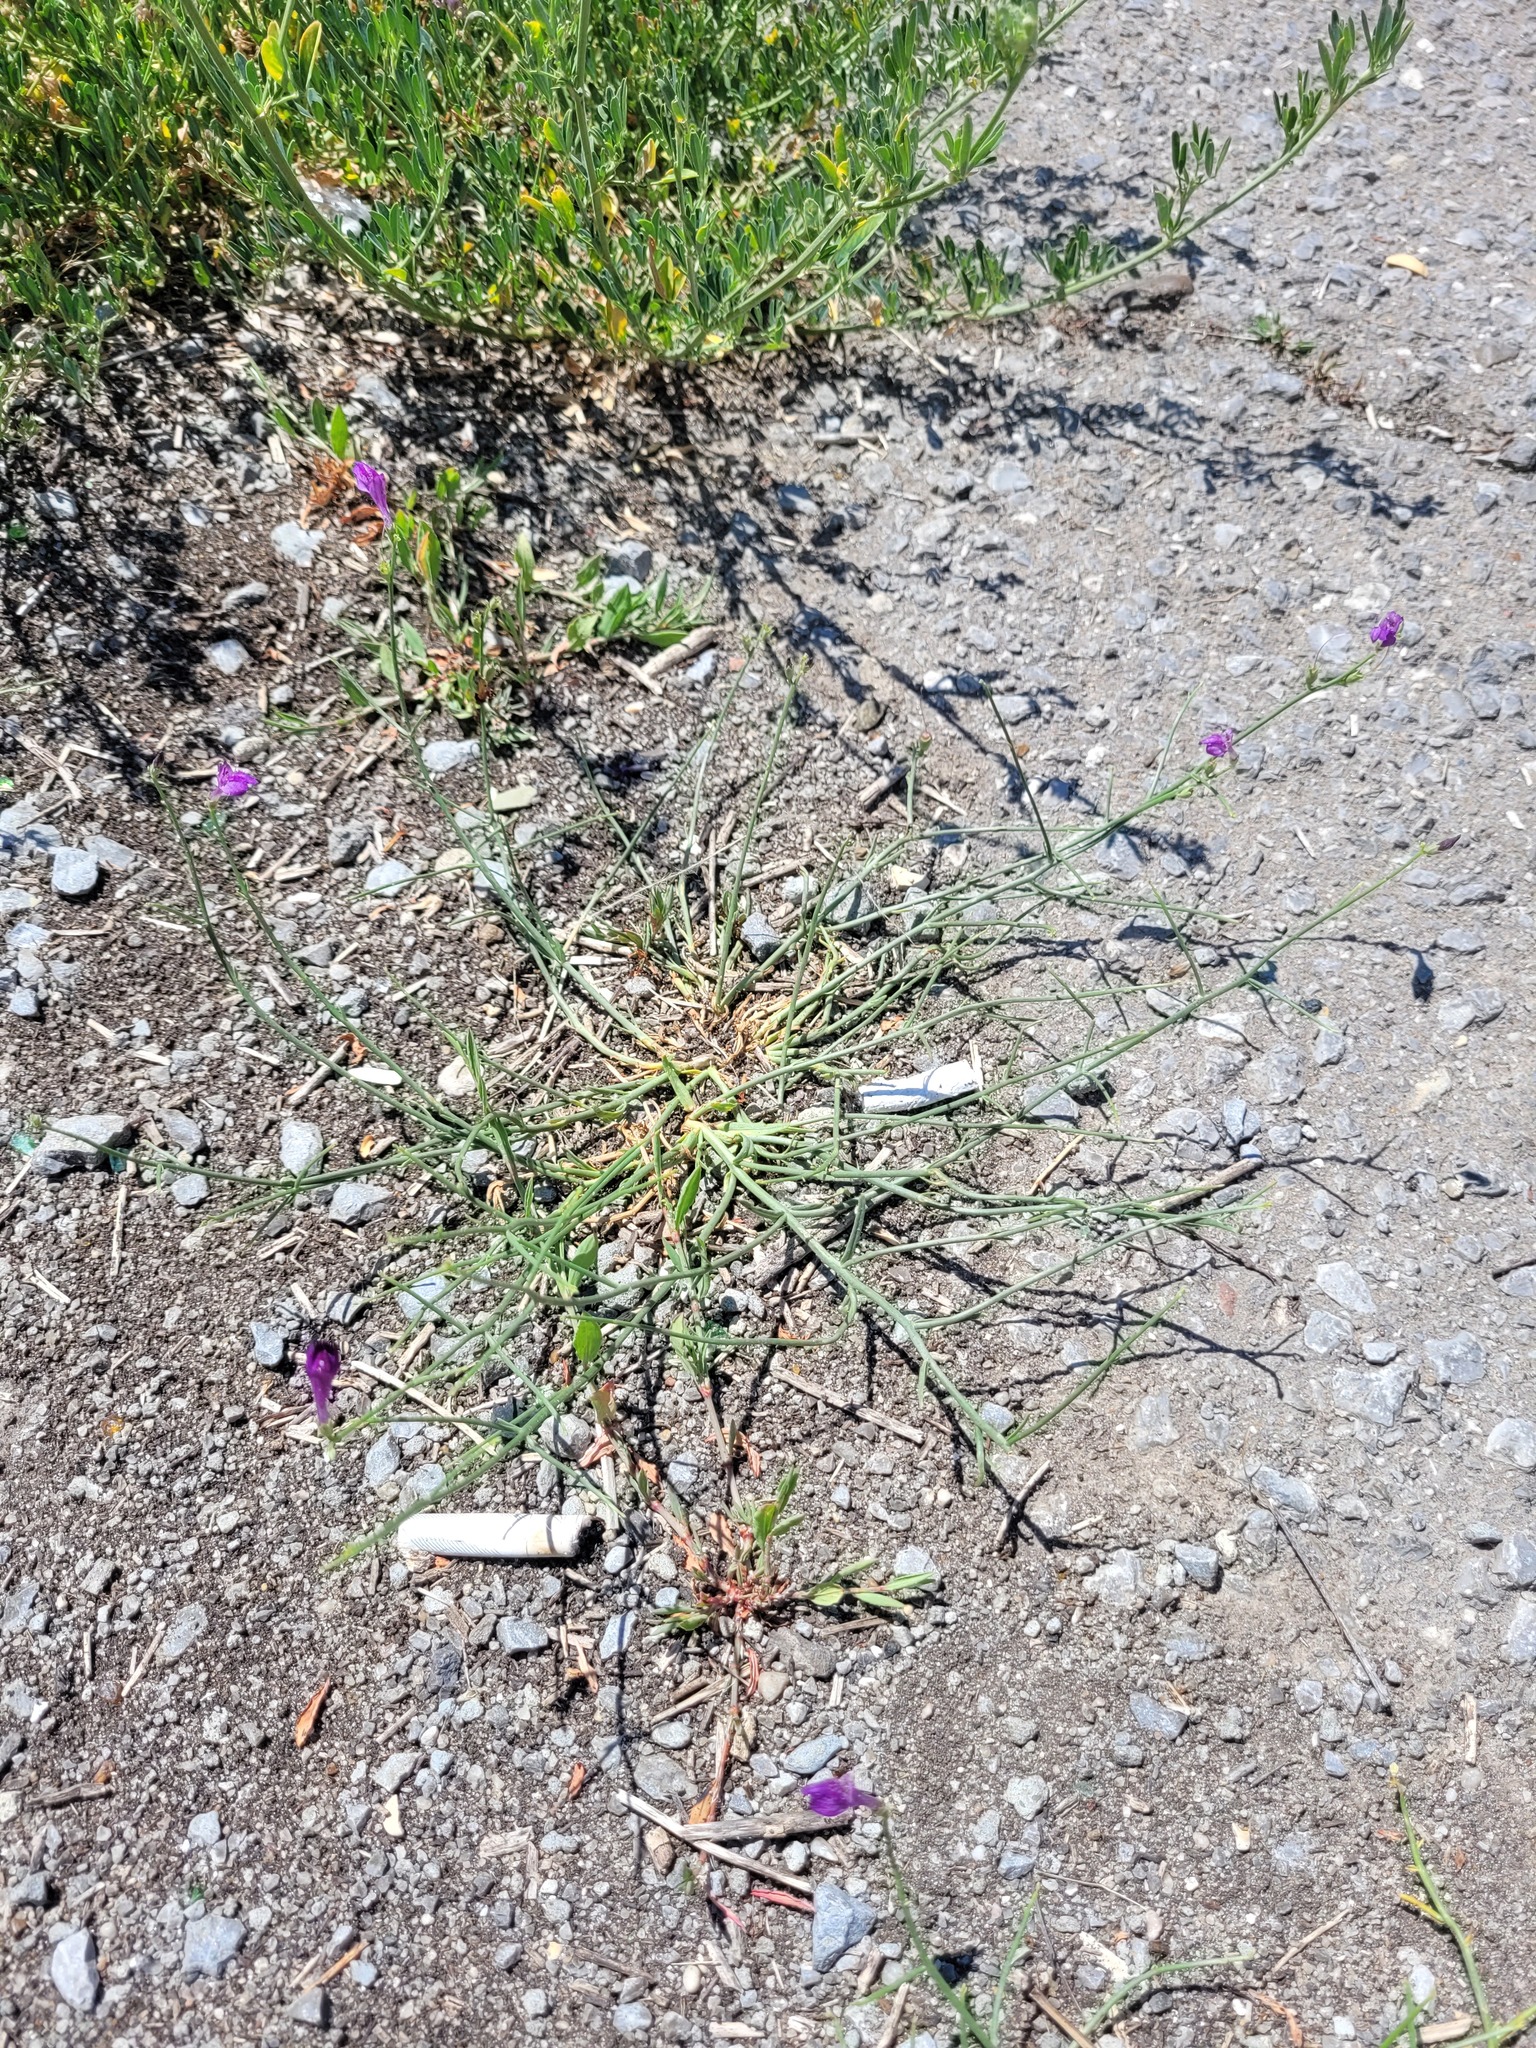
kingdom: Plantae
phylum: Tracheophyta
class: Magnoliopsida
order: Lamiales
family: Mazaceae
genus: Dodartia
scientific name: Dodartia orientalis
